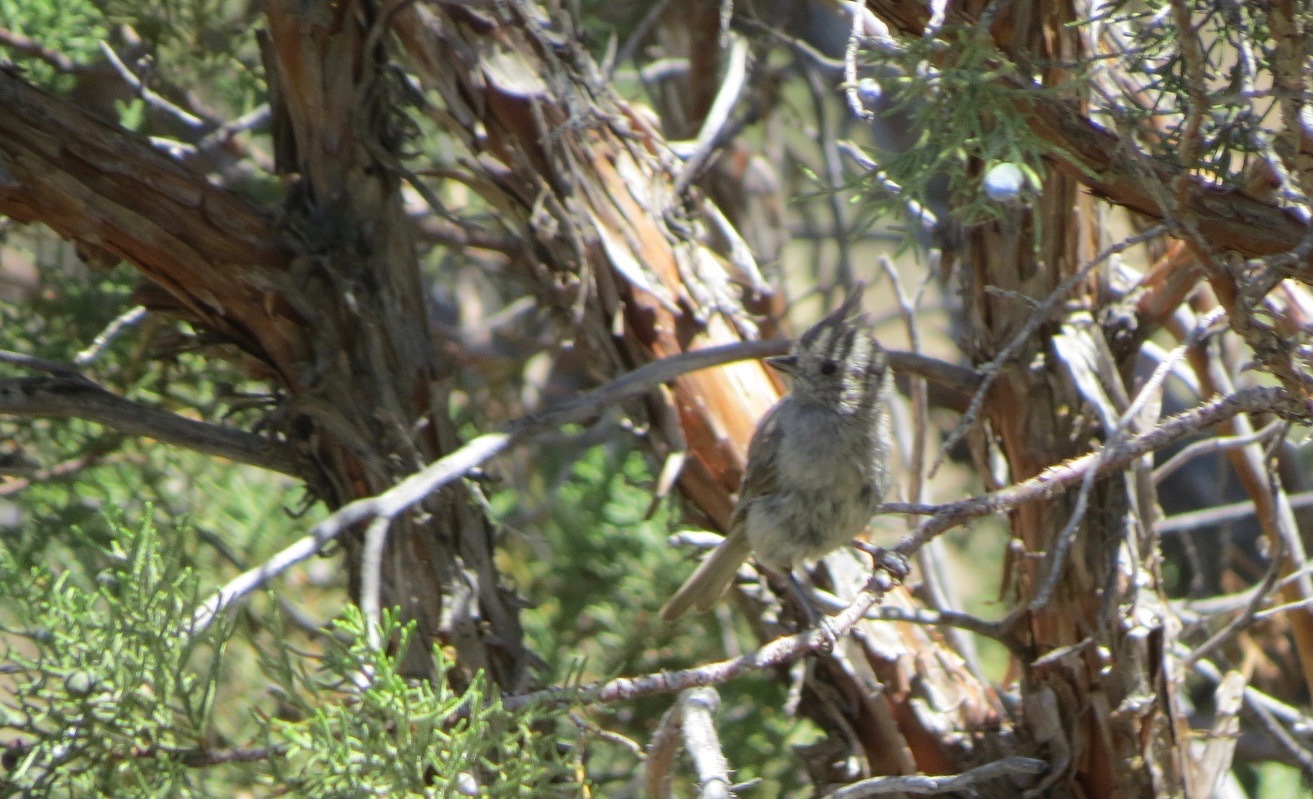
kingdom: Animalia
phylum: Chordata
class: Aves
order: Passeriformes
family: Paridae
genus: Baeolophus
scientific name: Baeolophus ridgwayi
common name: Juniper titmouse
